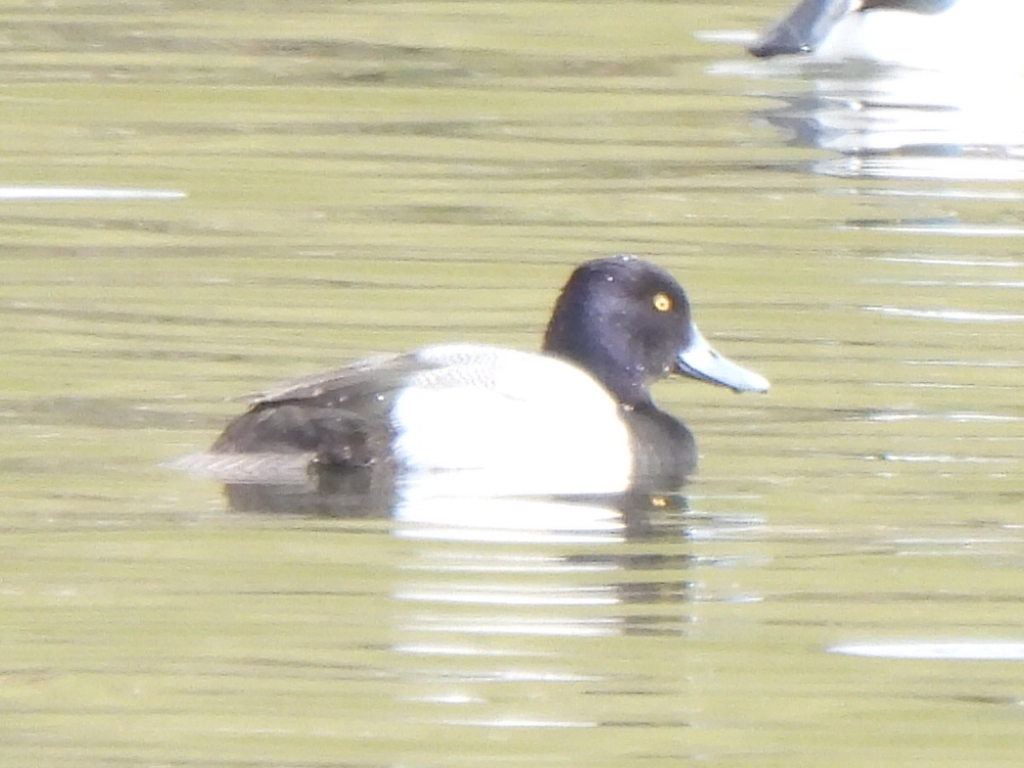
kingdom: Animalia
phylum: Chordata
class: Aves
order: Anseriformes
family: Anatidae
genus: Aythya
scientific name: Aythya affinis
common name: Lesser scaup
